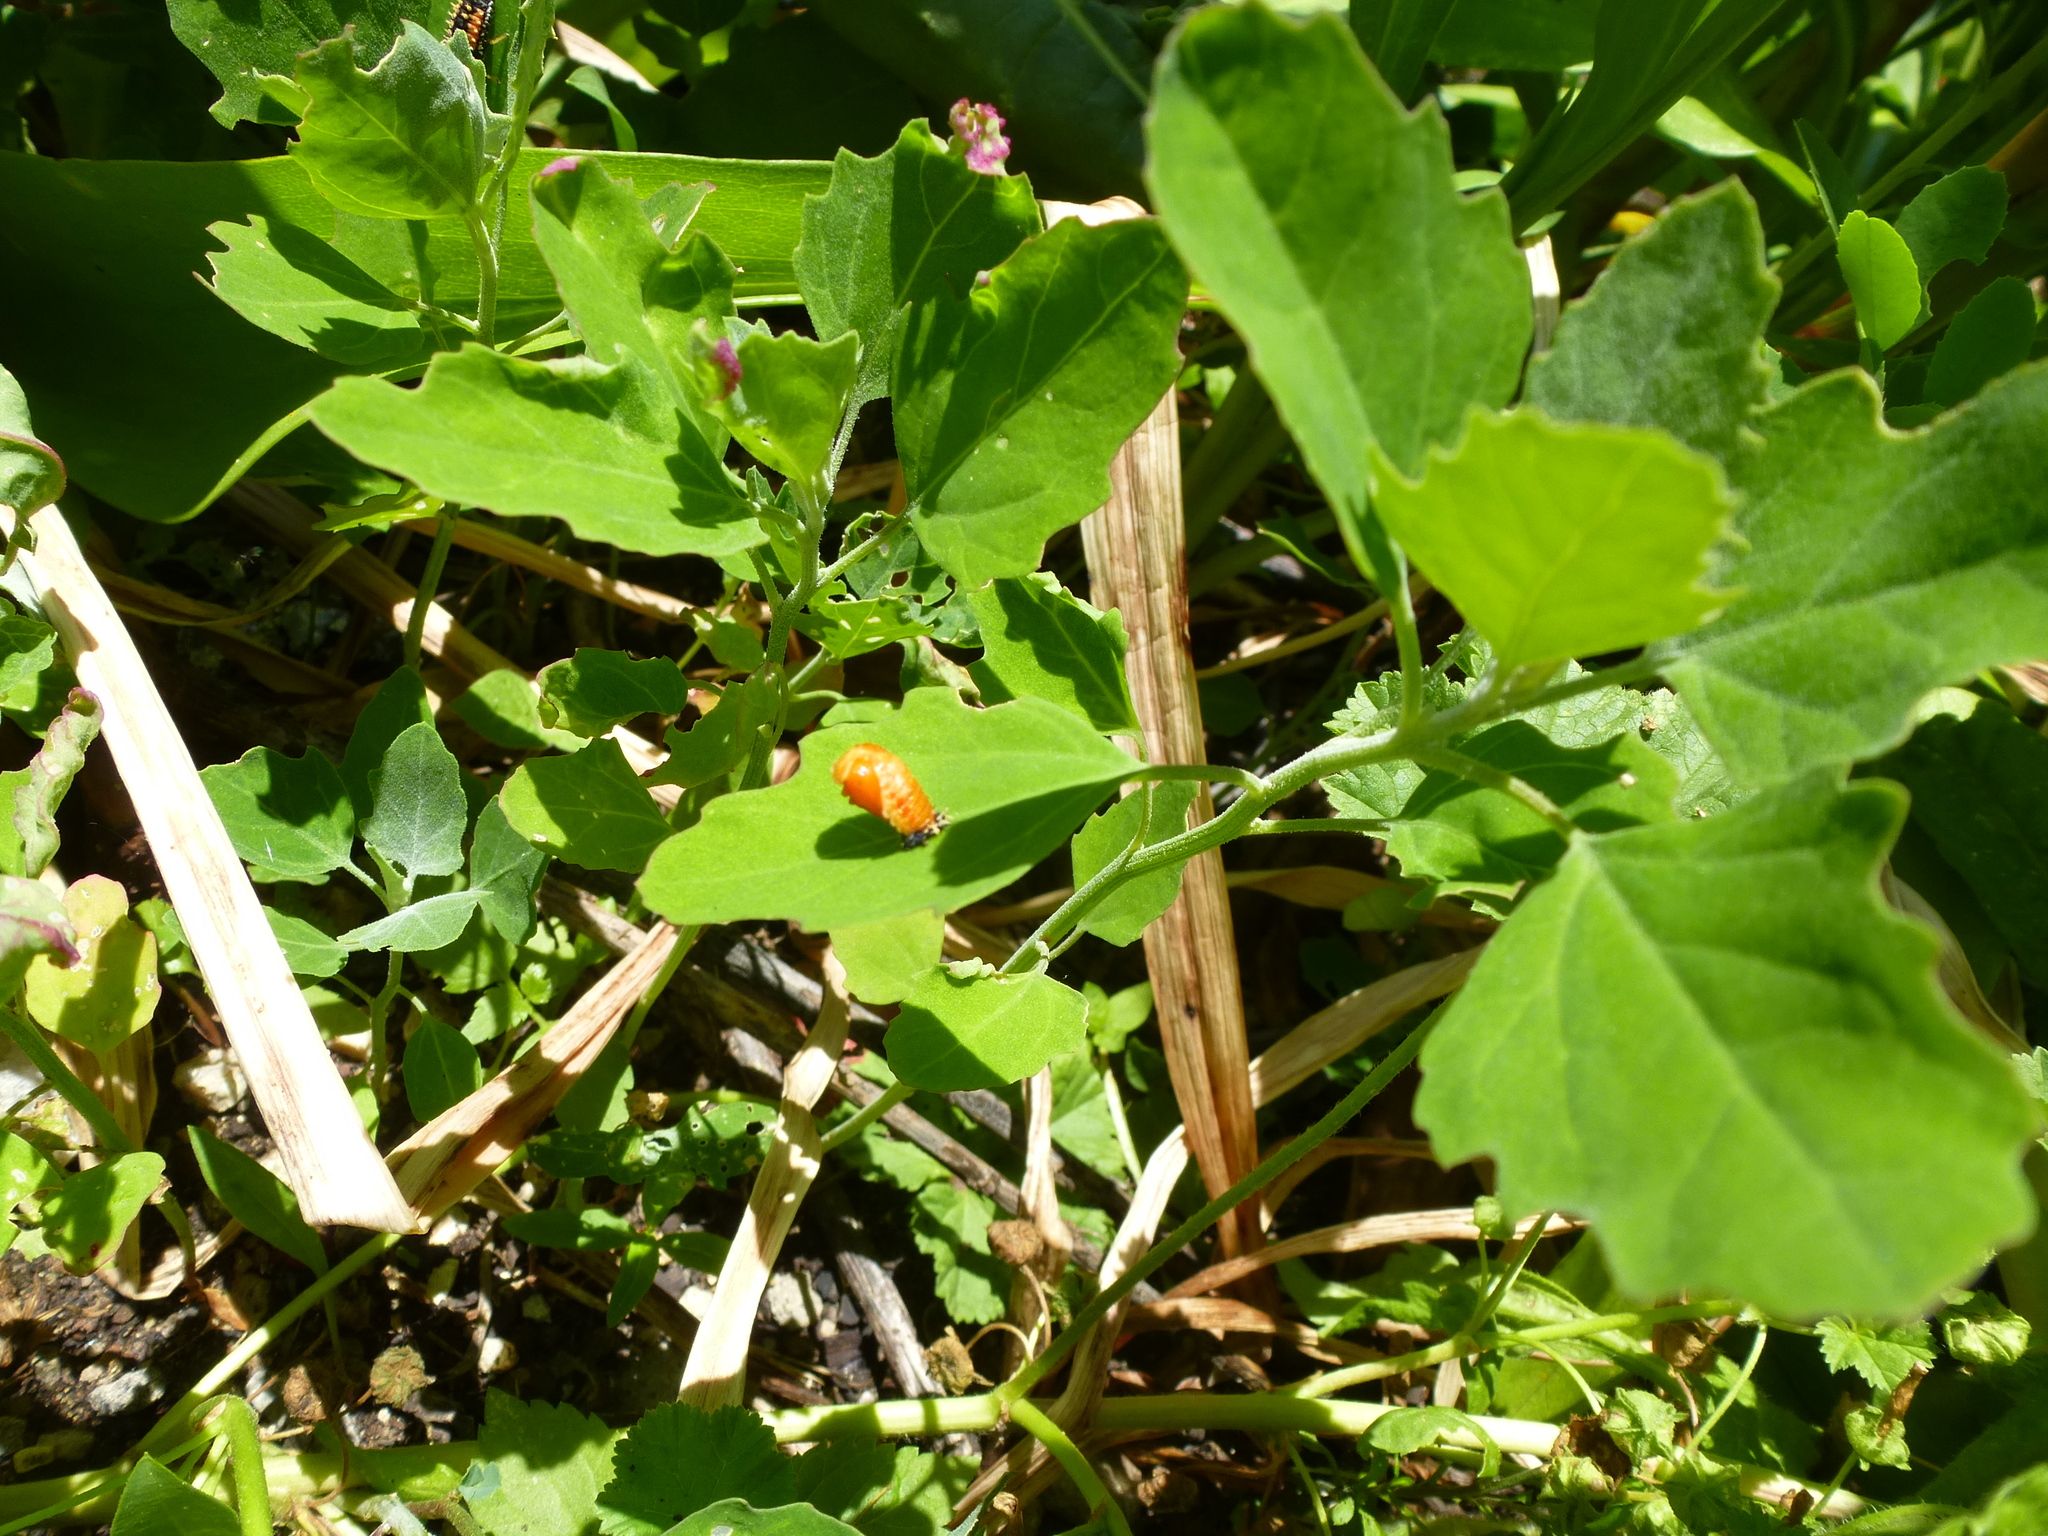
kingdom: Animalia
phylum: Arthropoda
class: Insecta
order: Coleoptera
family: Coccinellidae
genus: Harmonia
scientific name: Harmonia axyridis
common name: Harlequin ladybird
